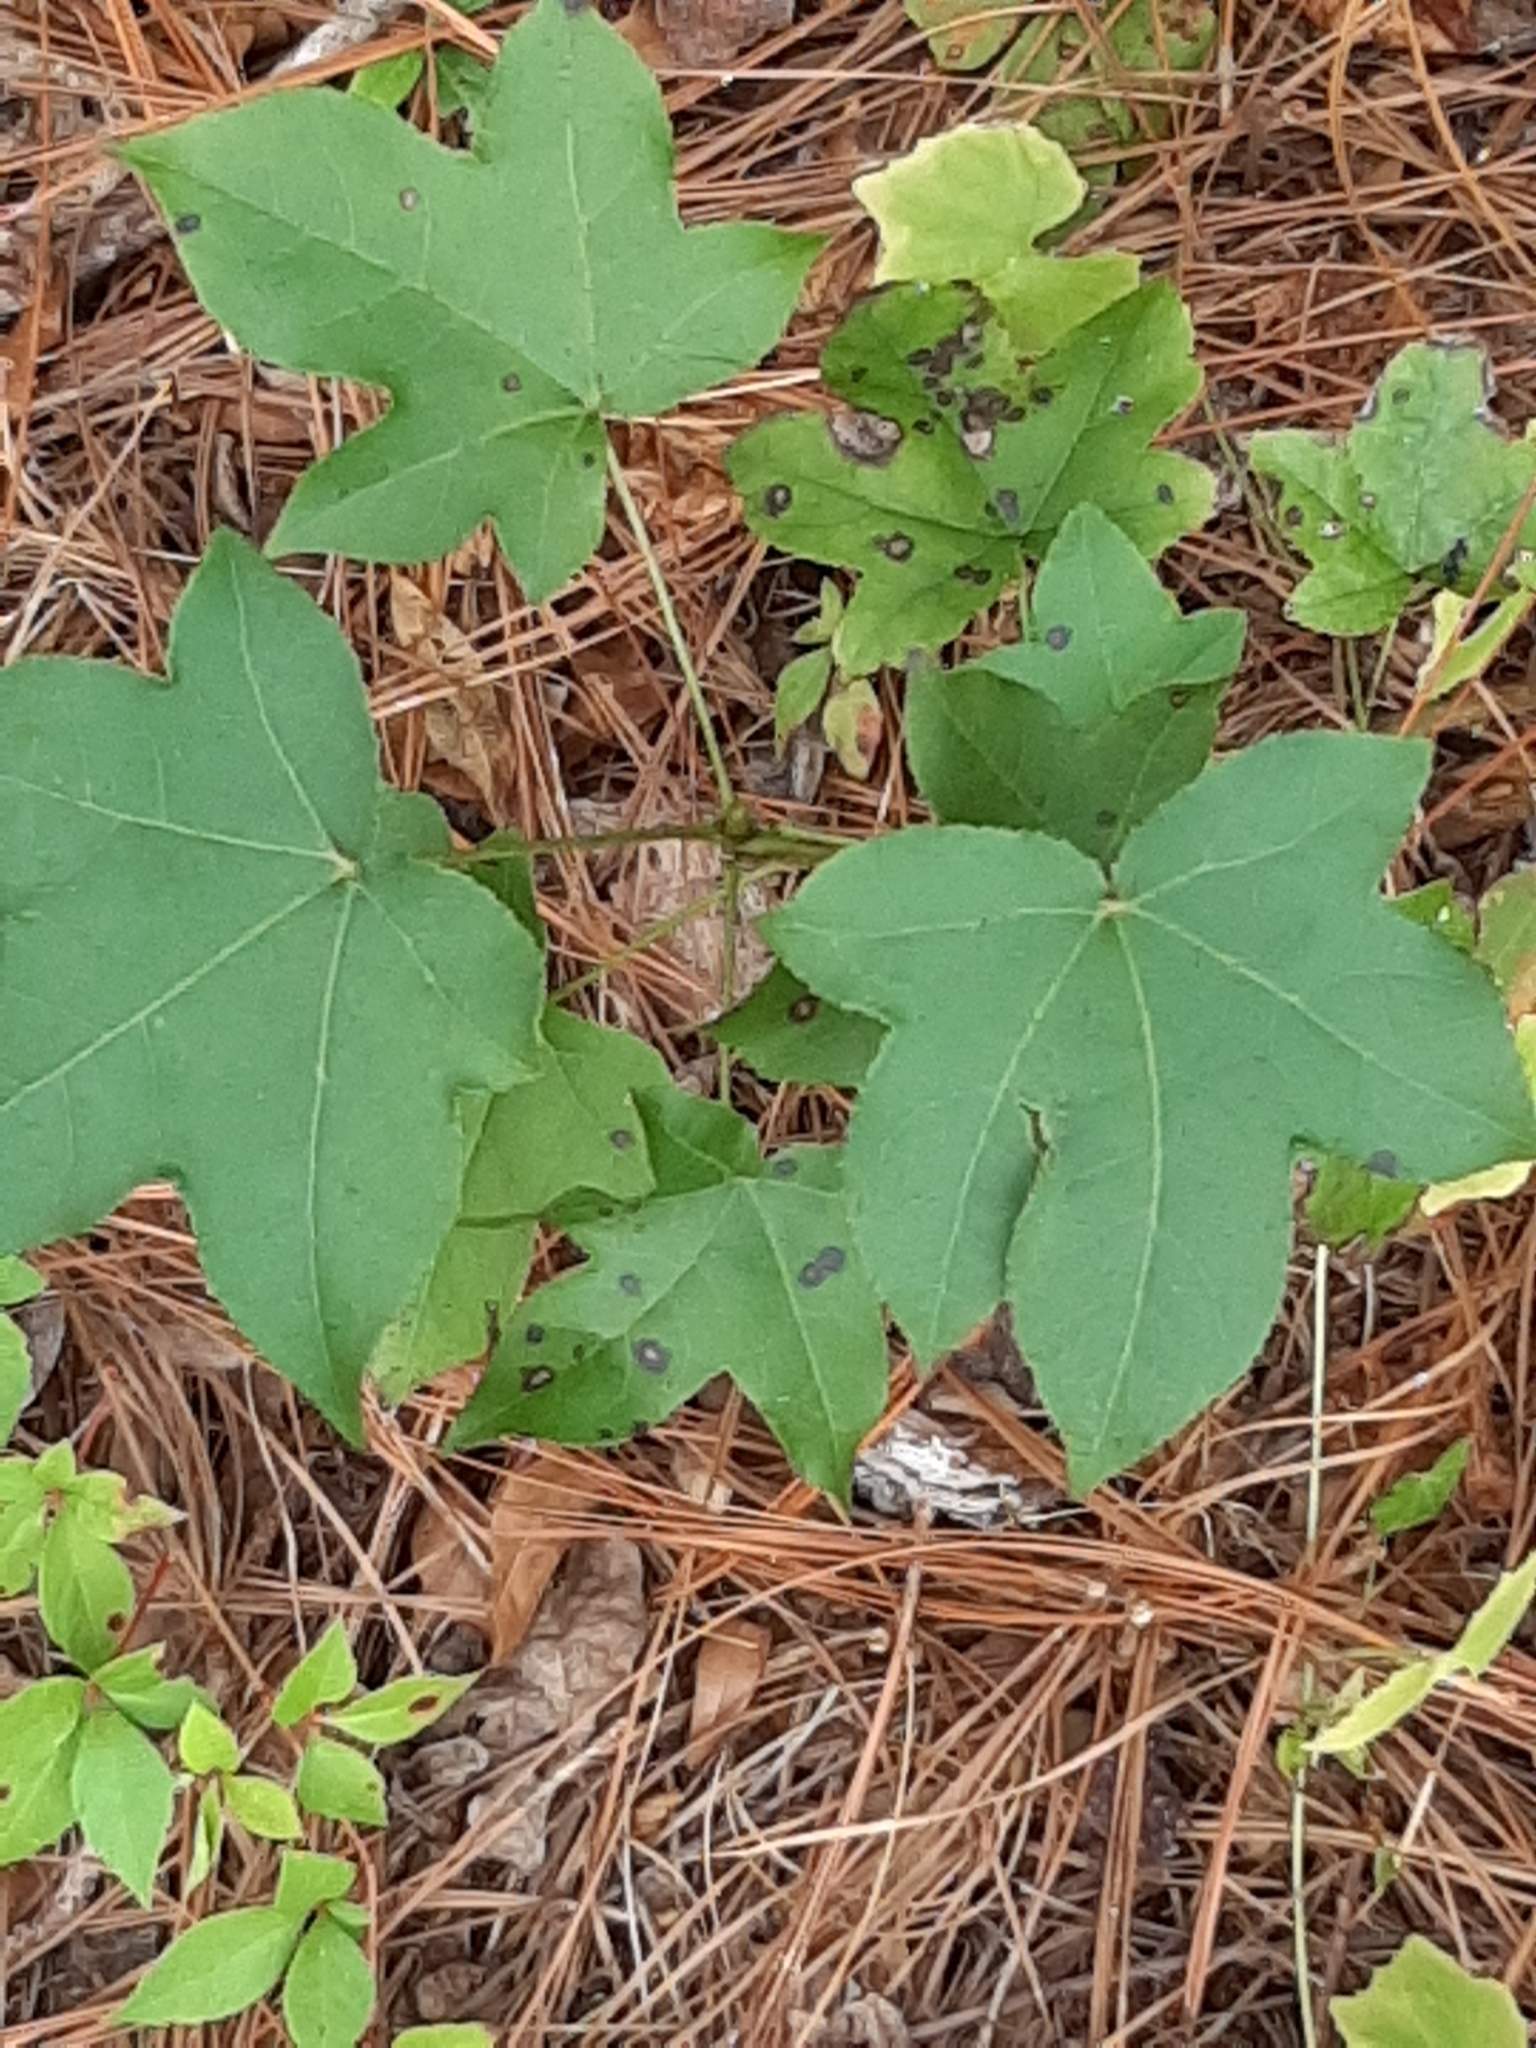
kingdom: Plantae
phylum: Tracheophyta
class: Magnoliopsida
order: Saxifragales
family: Altingiaceae
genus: Liquidambar
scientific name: Liquidambar styraciflua
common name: Sweet gum
